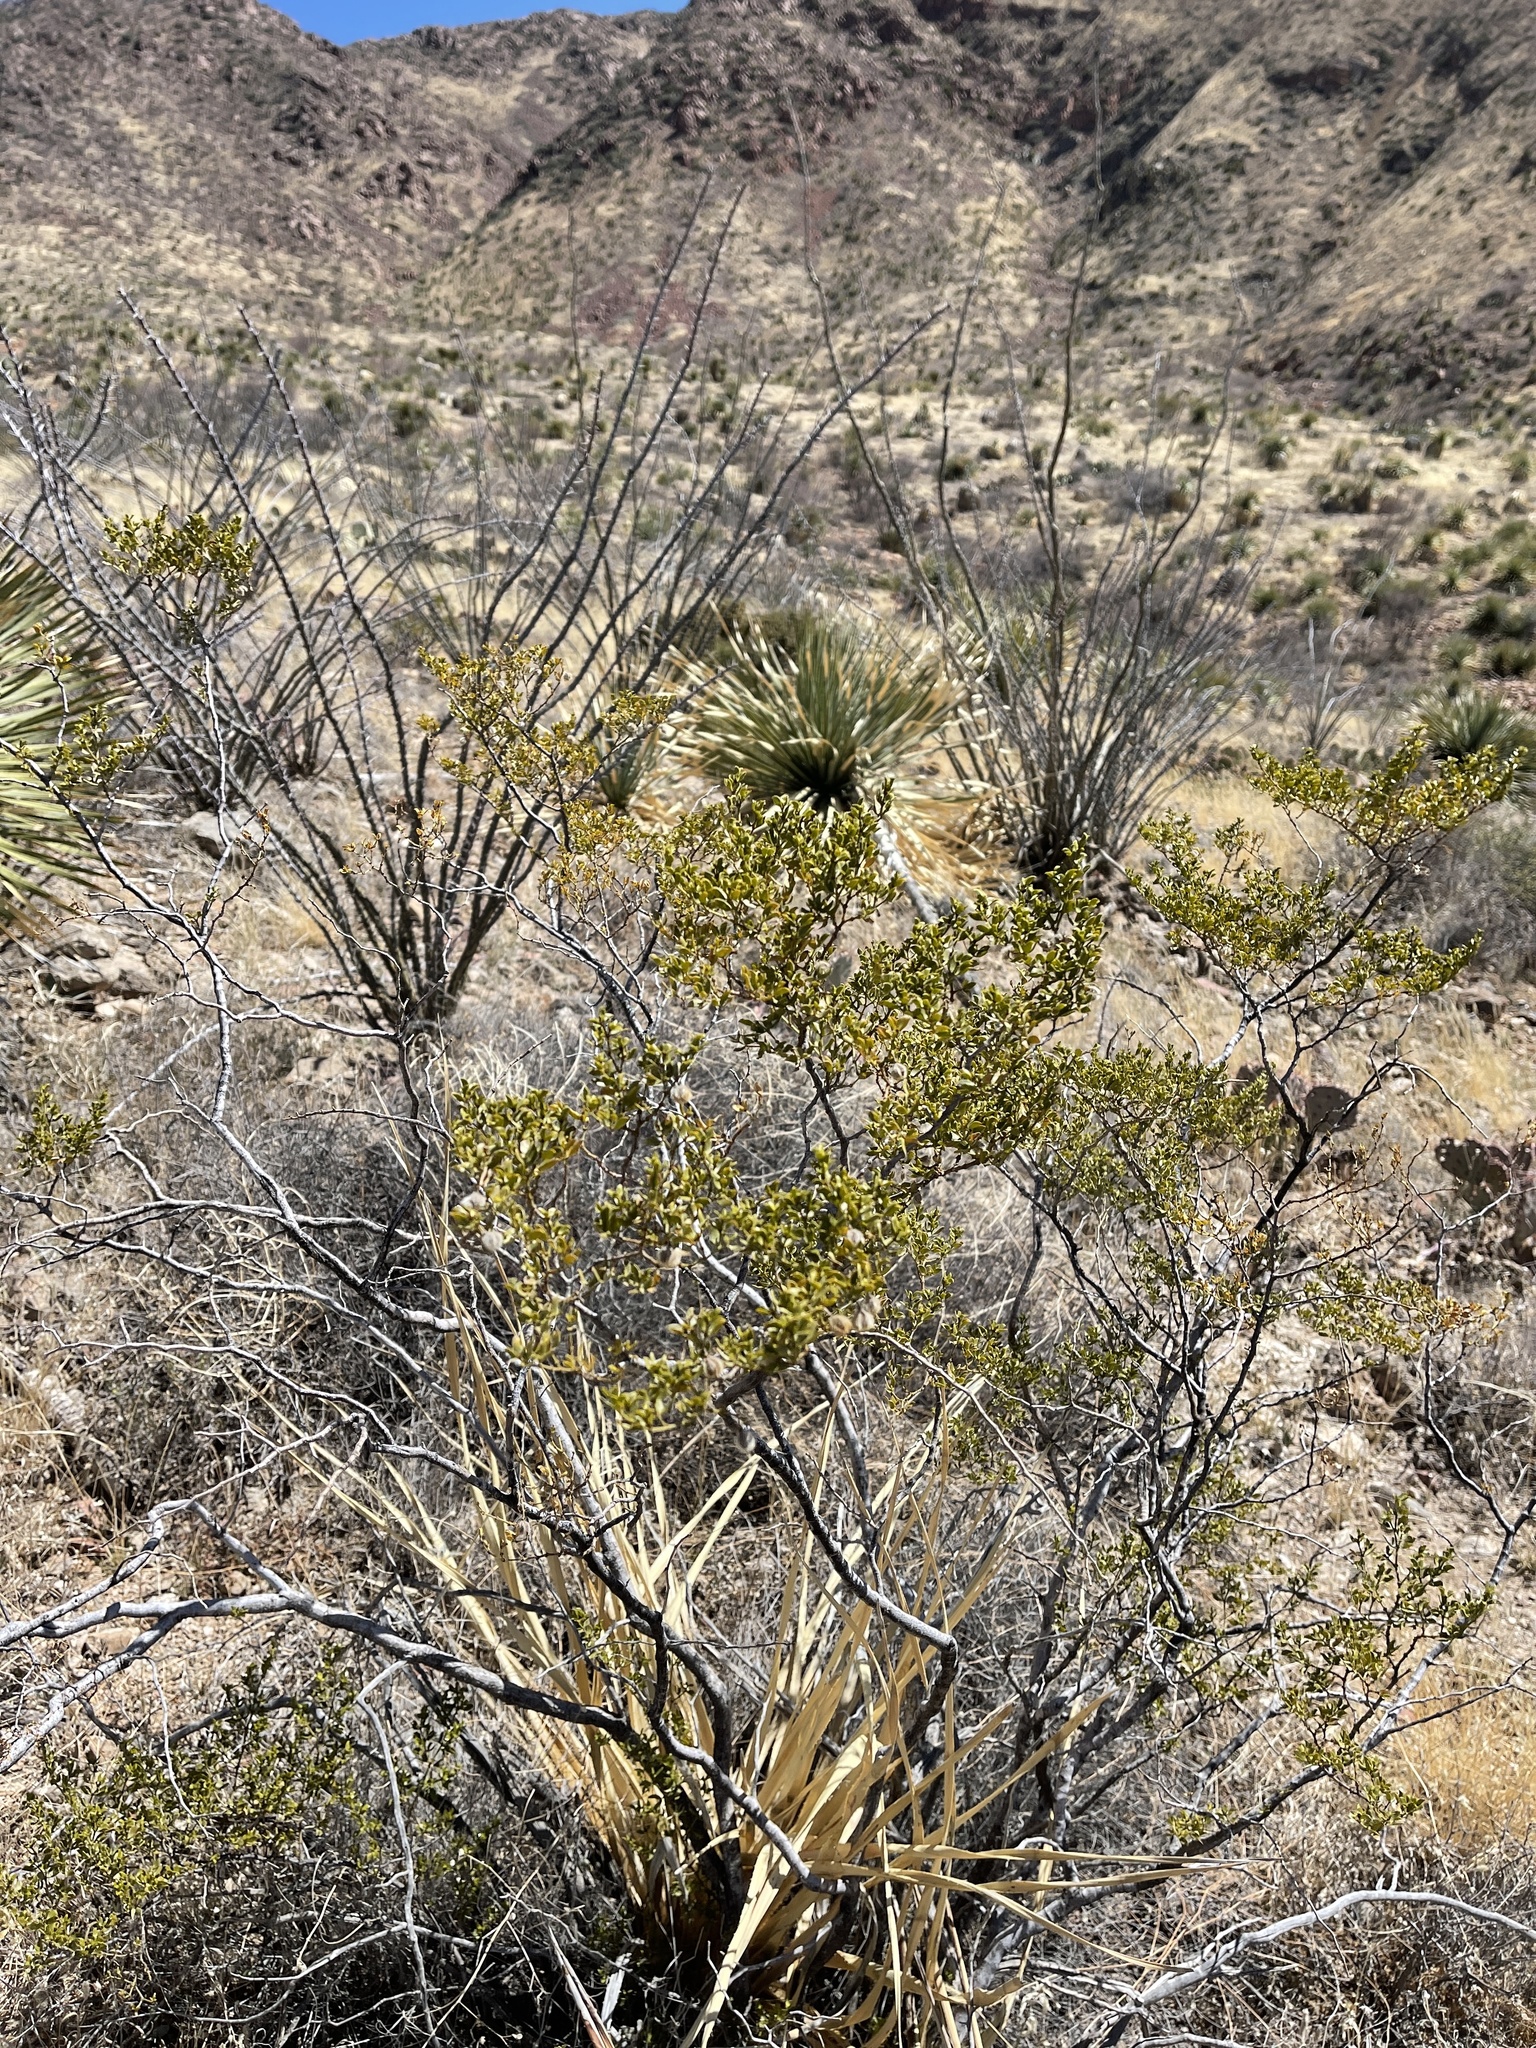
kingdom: Plantae
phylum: Tracheophyta
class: Magnoliopsida
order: Zygophyllales
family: Zygophyllaceae
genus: Larrea
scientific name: Larrea tridentata
